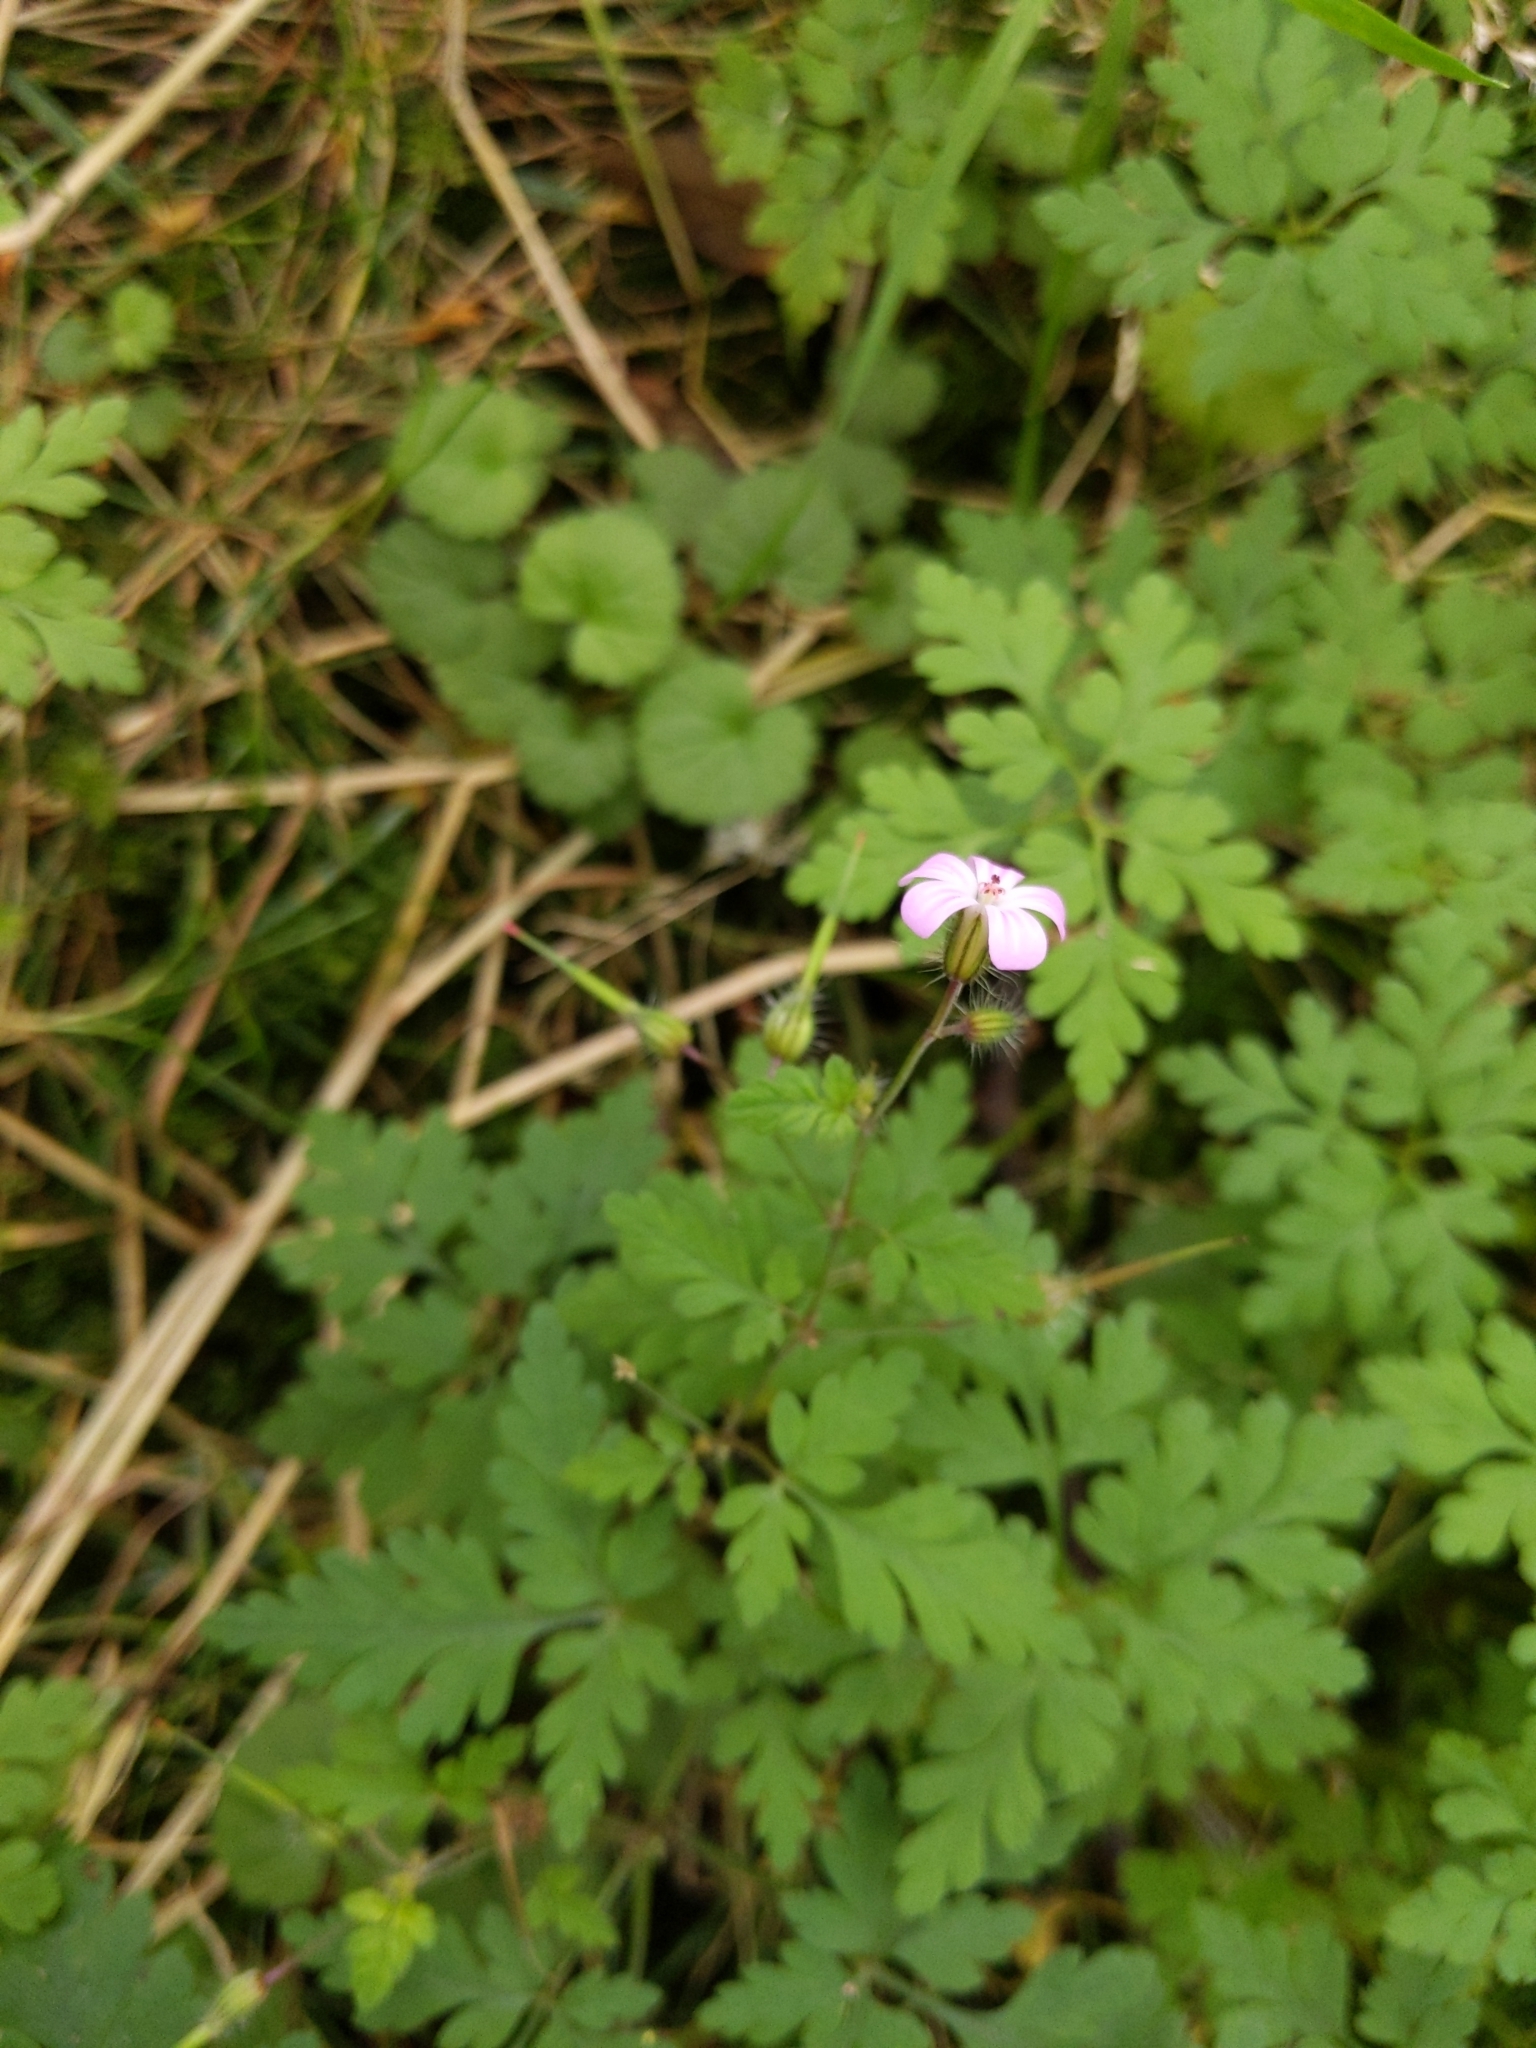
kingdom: Plantae
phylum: Tracheophyta
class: Magnoliopsida
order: Geraniales
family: Geraniaceae
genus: Geranium
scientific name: Geranium robertianum
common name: Herb-robert
